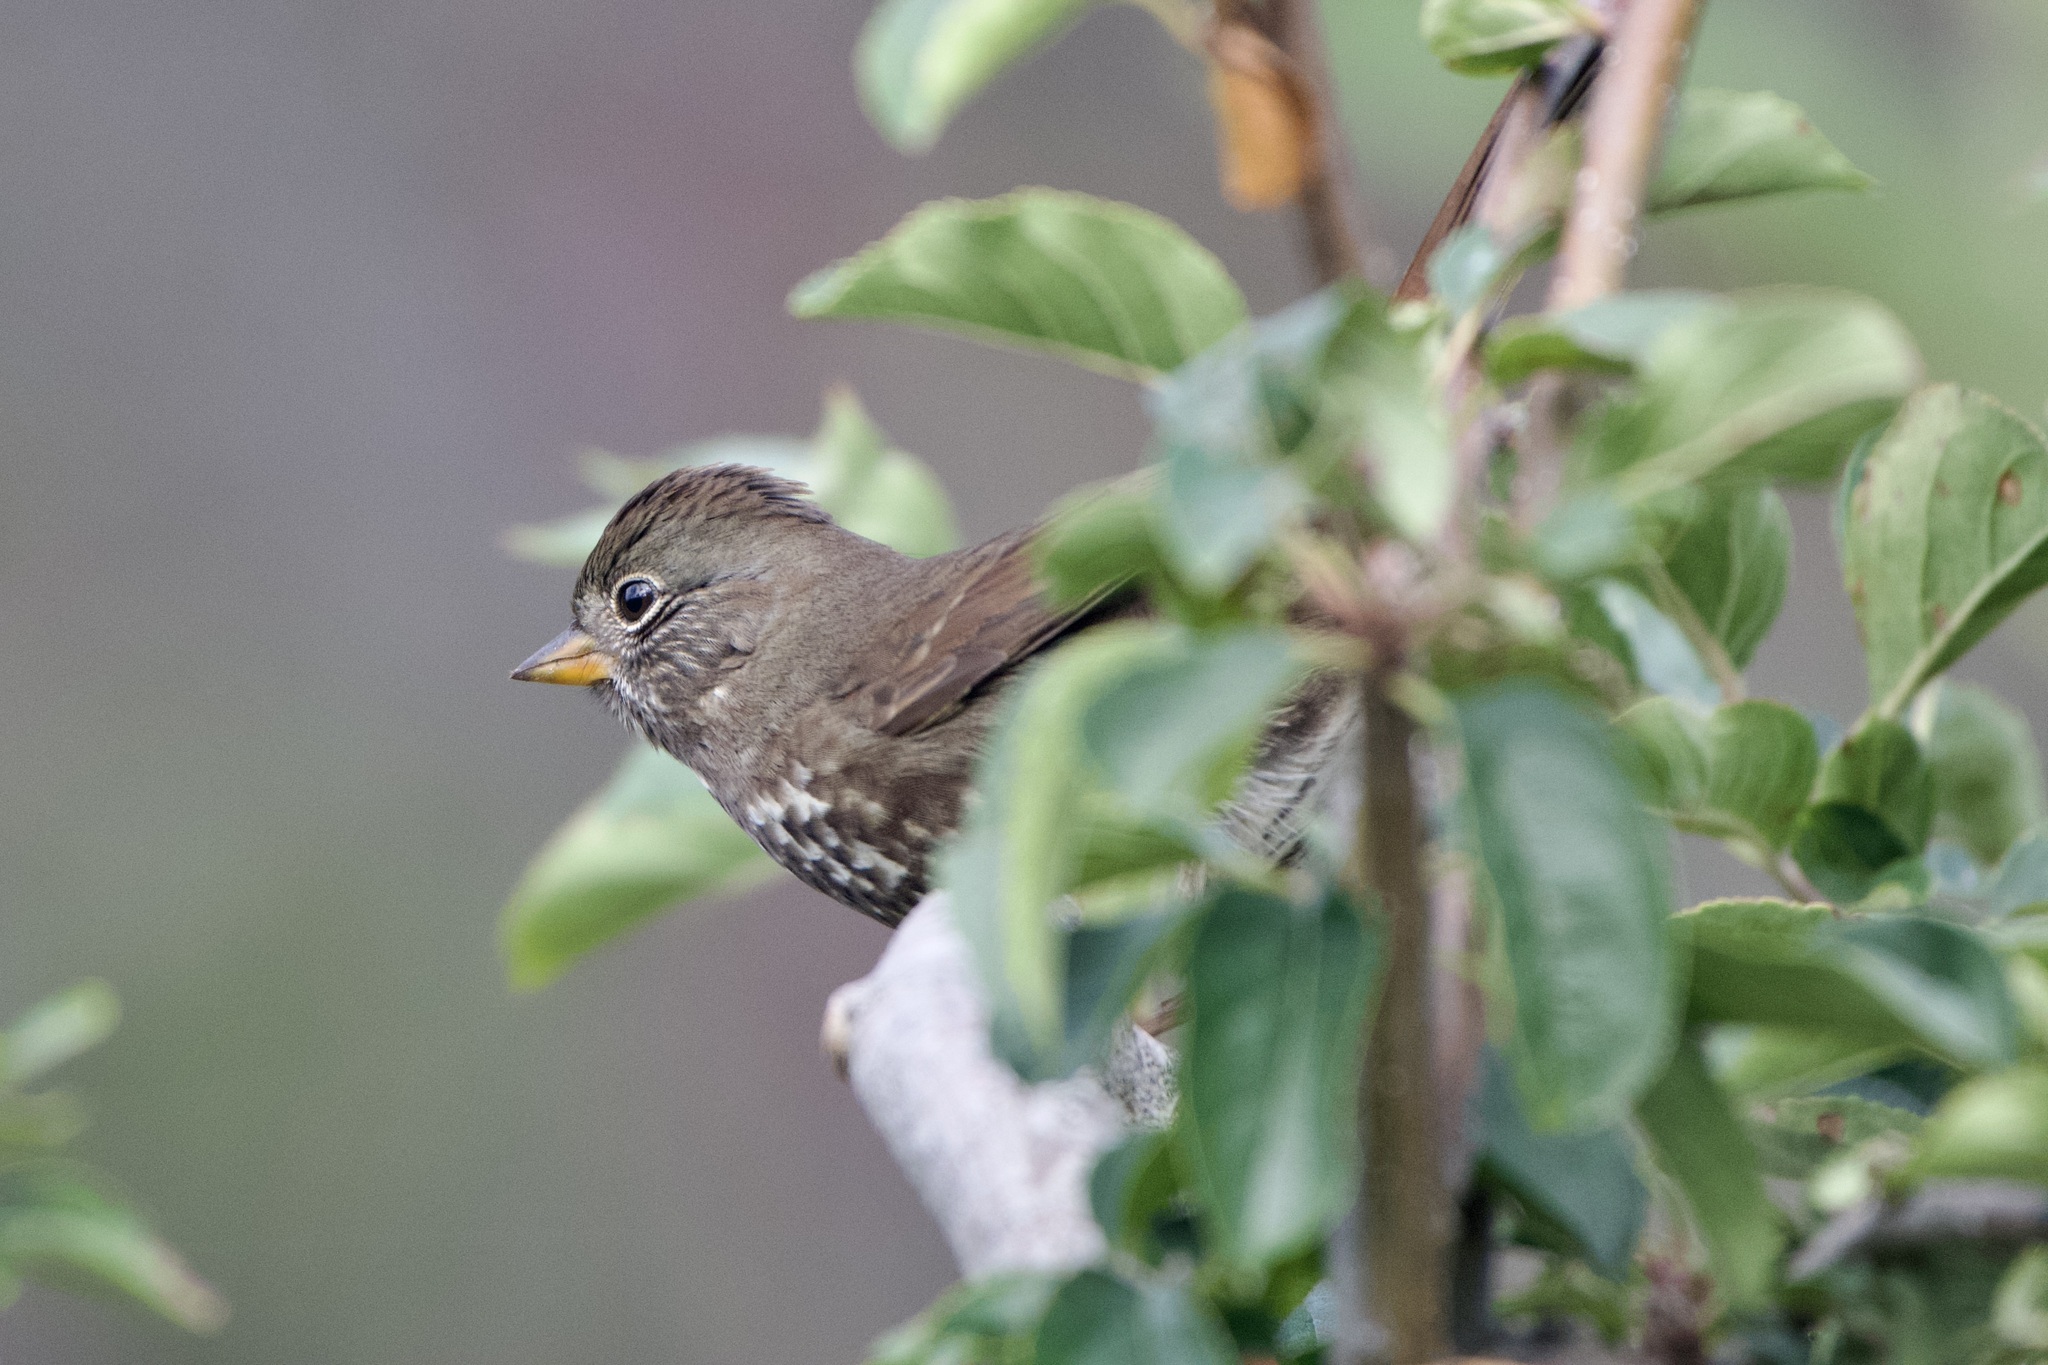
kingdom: Animalia
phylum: Chordata
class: Aves
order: Passeriformes
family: Passerellidae
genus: Passerella
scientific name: Passerella iliaca
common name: Fox sparrow
